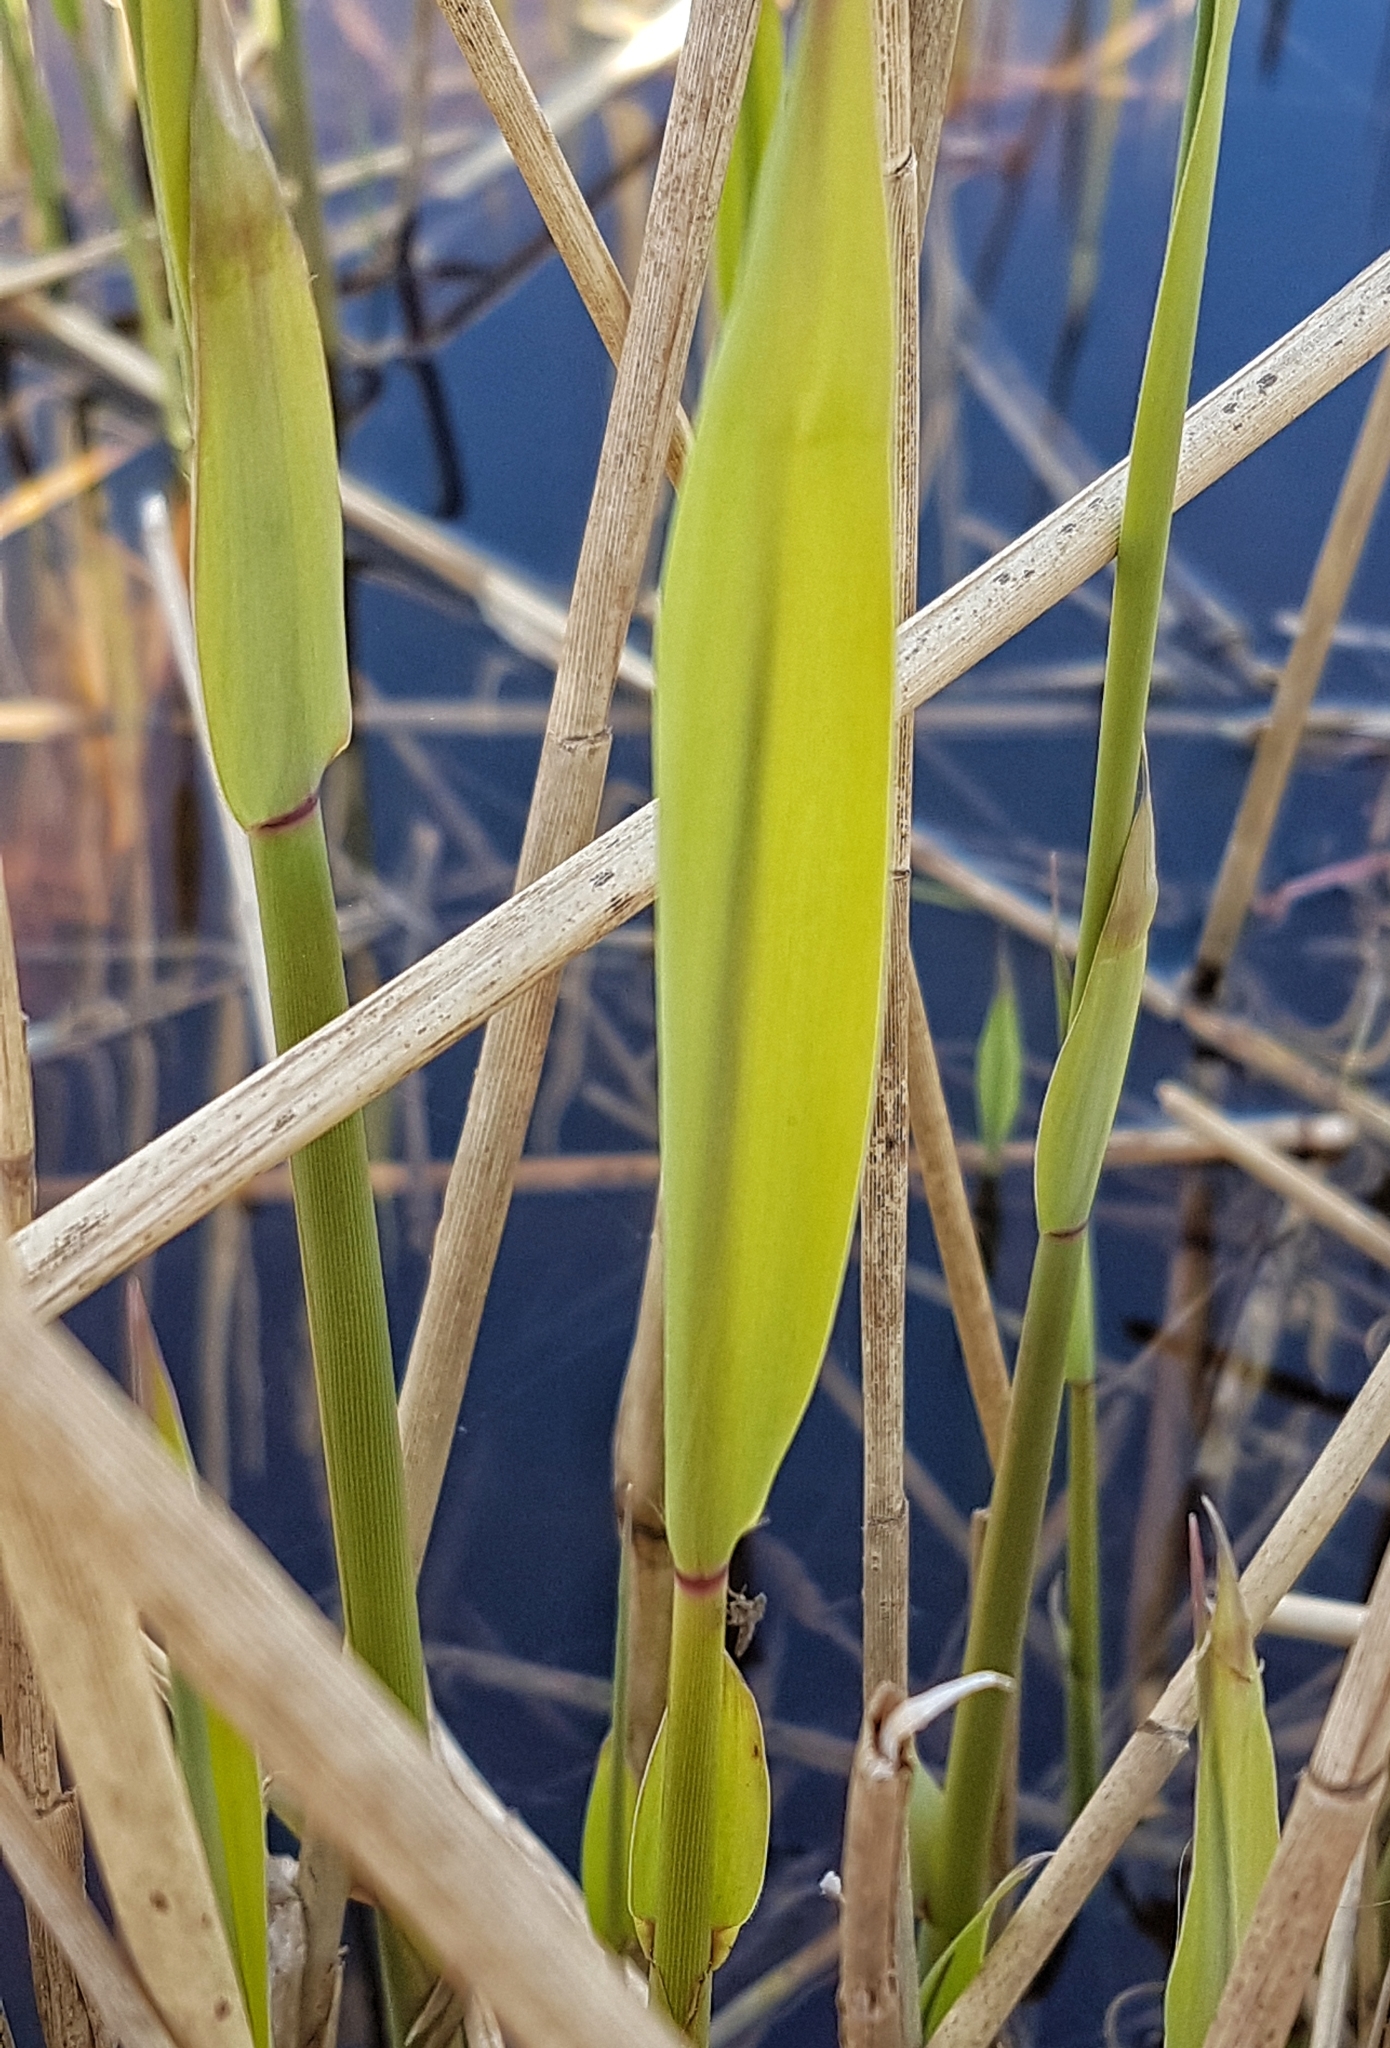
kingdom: Plantae
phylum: Tracheophyta
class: Liliopsida
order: Poales
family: Poaceae
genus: Phragmites
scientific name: Phragmites australis
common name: Common reed
